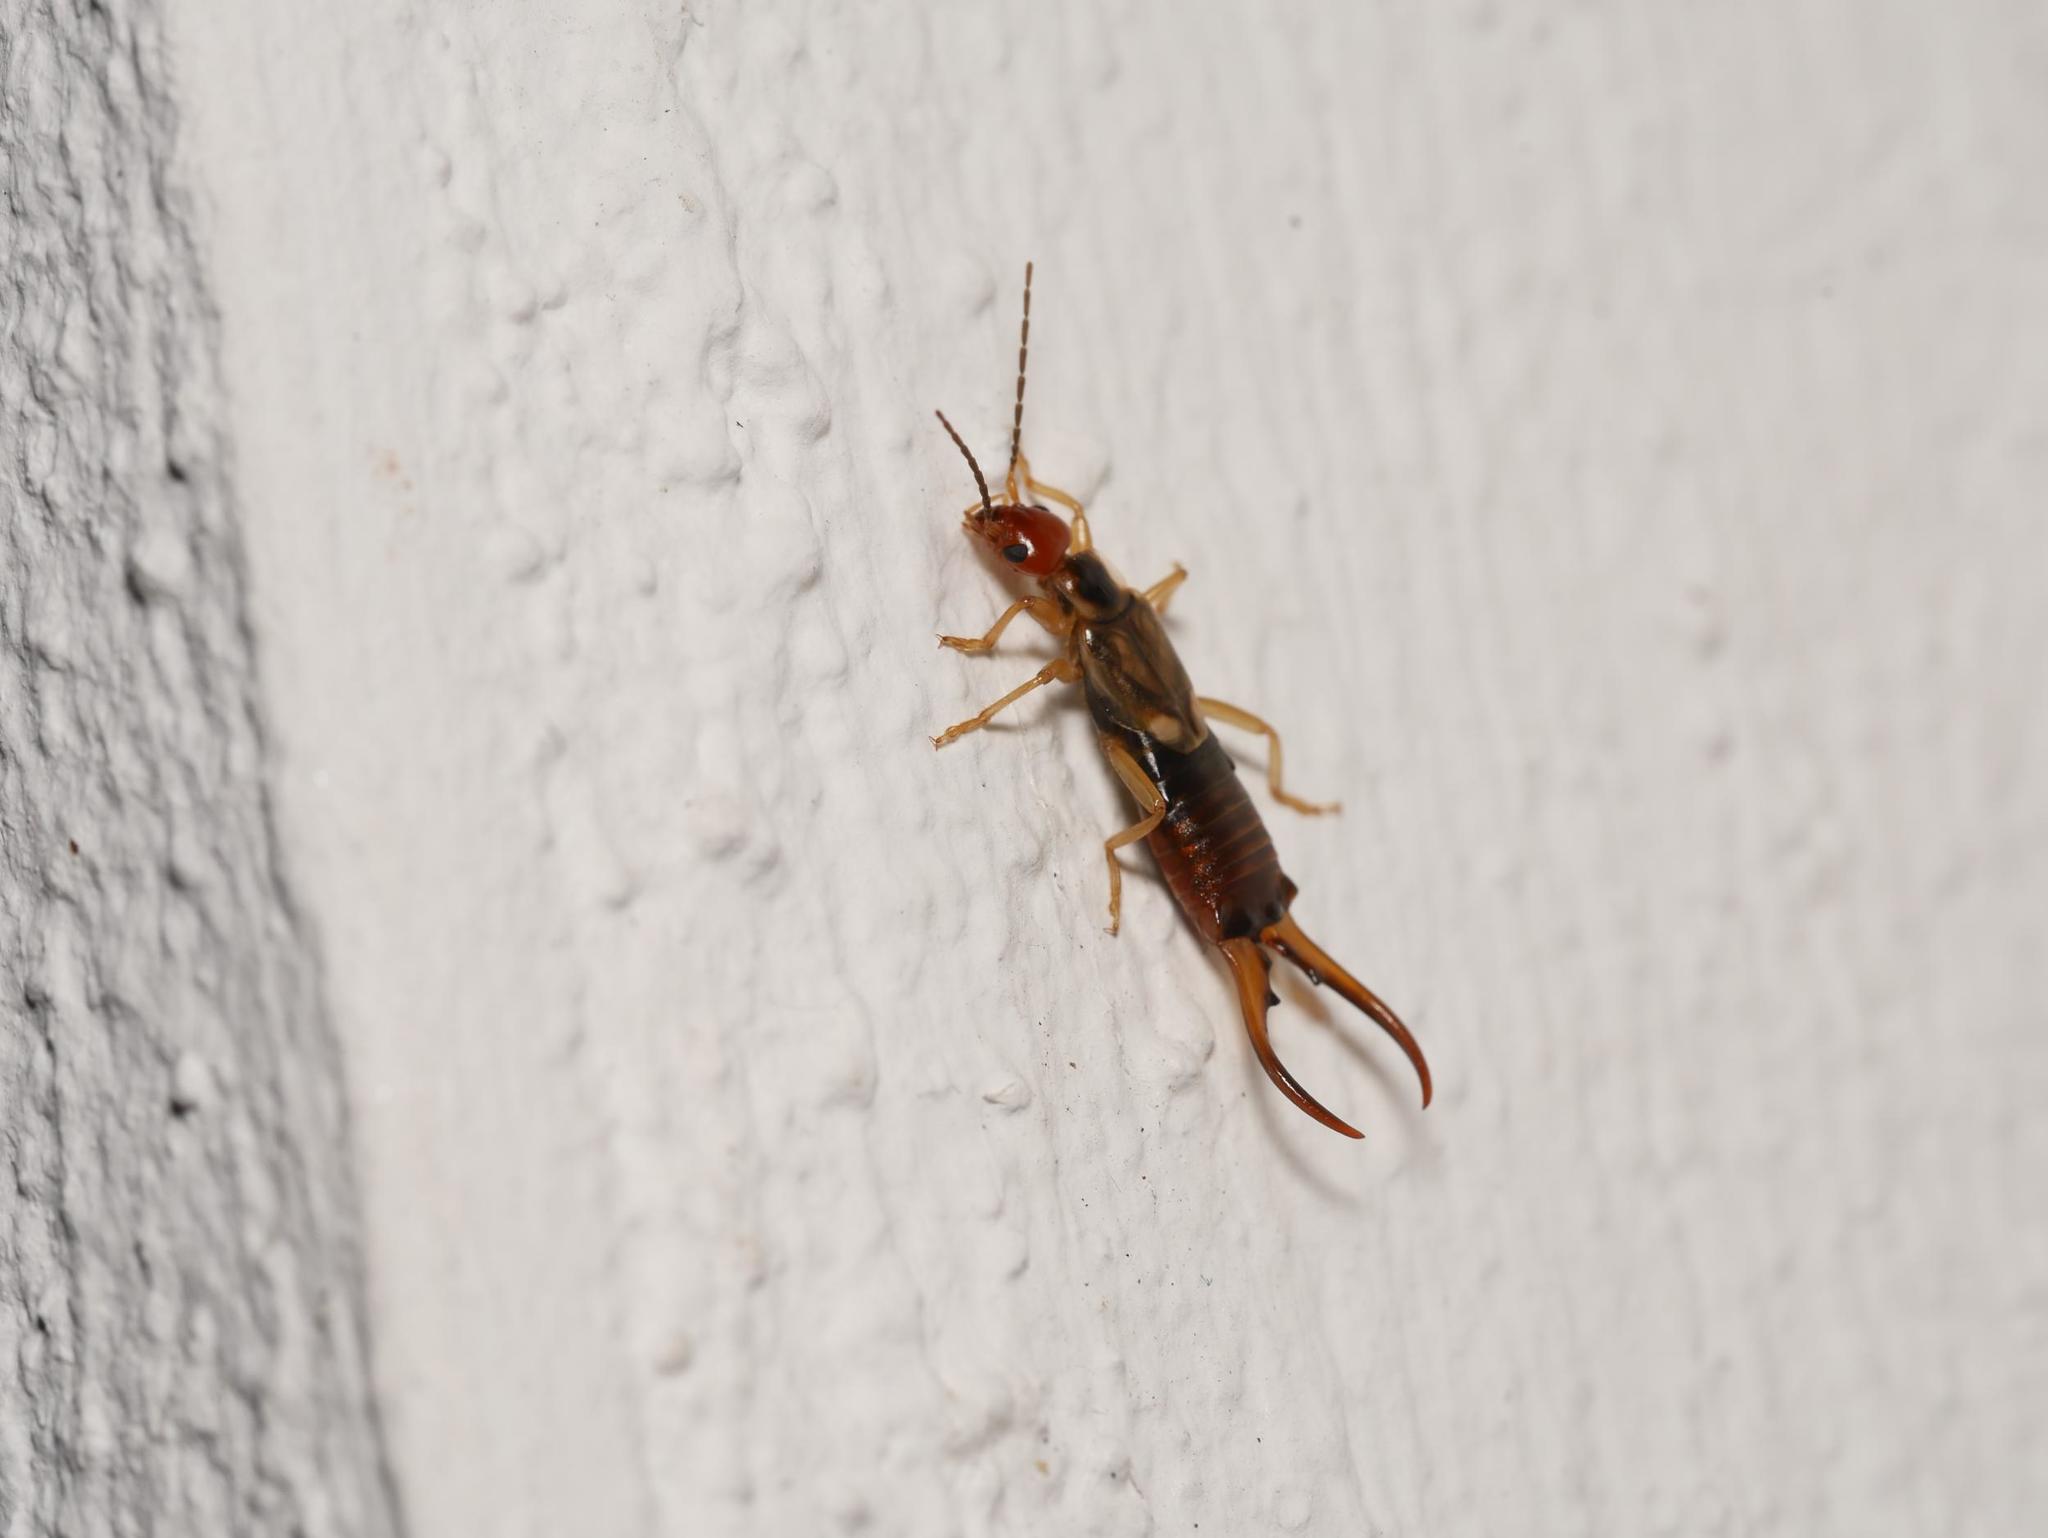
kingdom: Animalia
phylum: Arthropoda
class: Insecta
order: Dermaptera
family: Forficulidae
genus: Forficula
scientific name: Forficula
